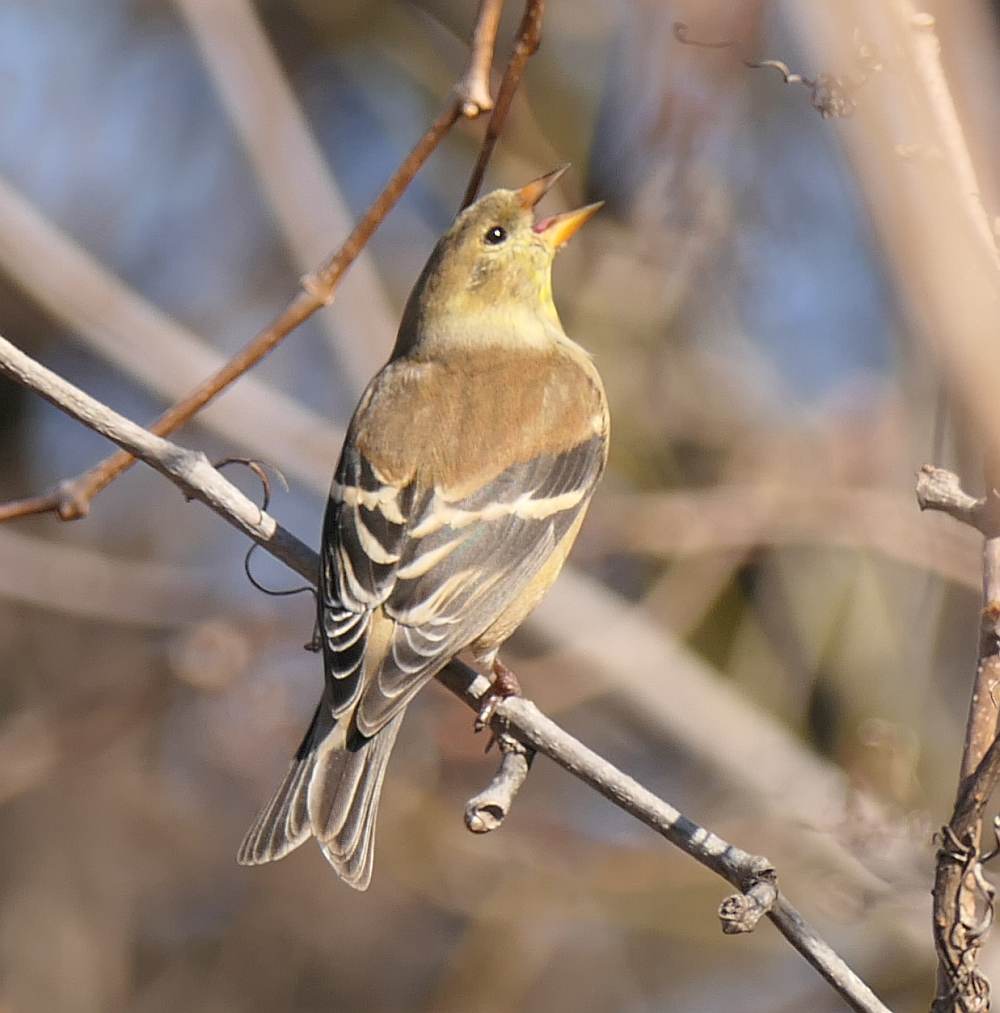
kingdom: Animalia
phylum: Chordata
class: Aves
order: Passeriformes
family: Fringillidae
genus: Spinus
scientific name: Spinus tristis
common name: American goldfinch
